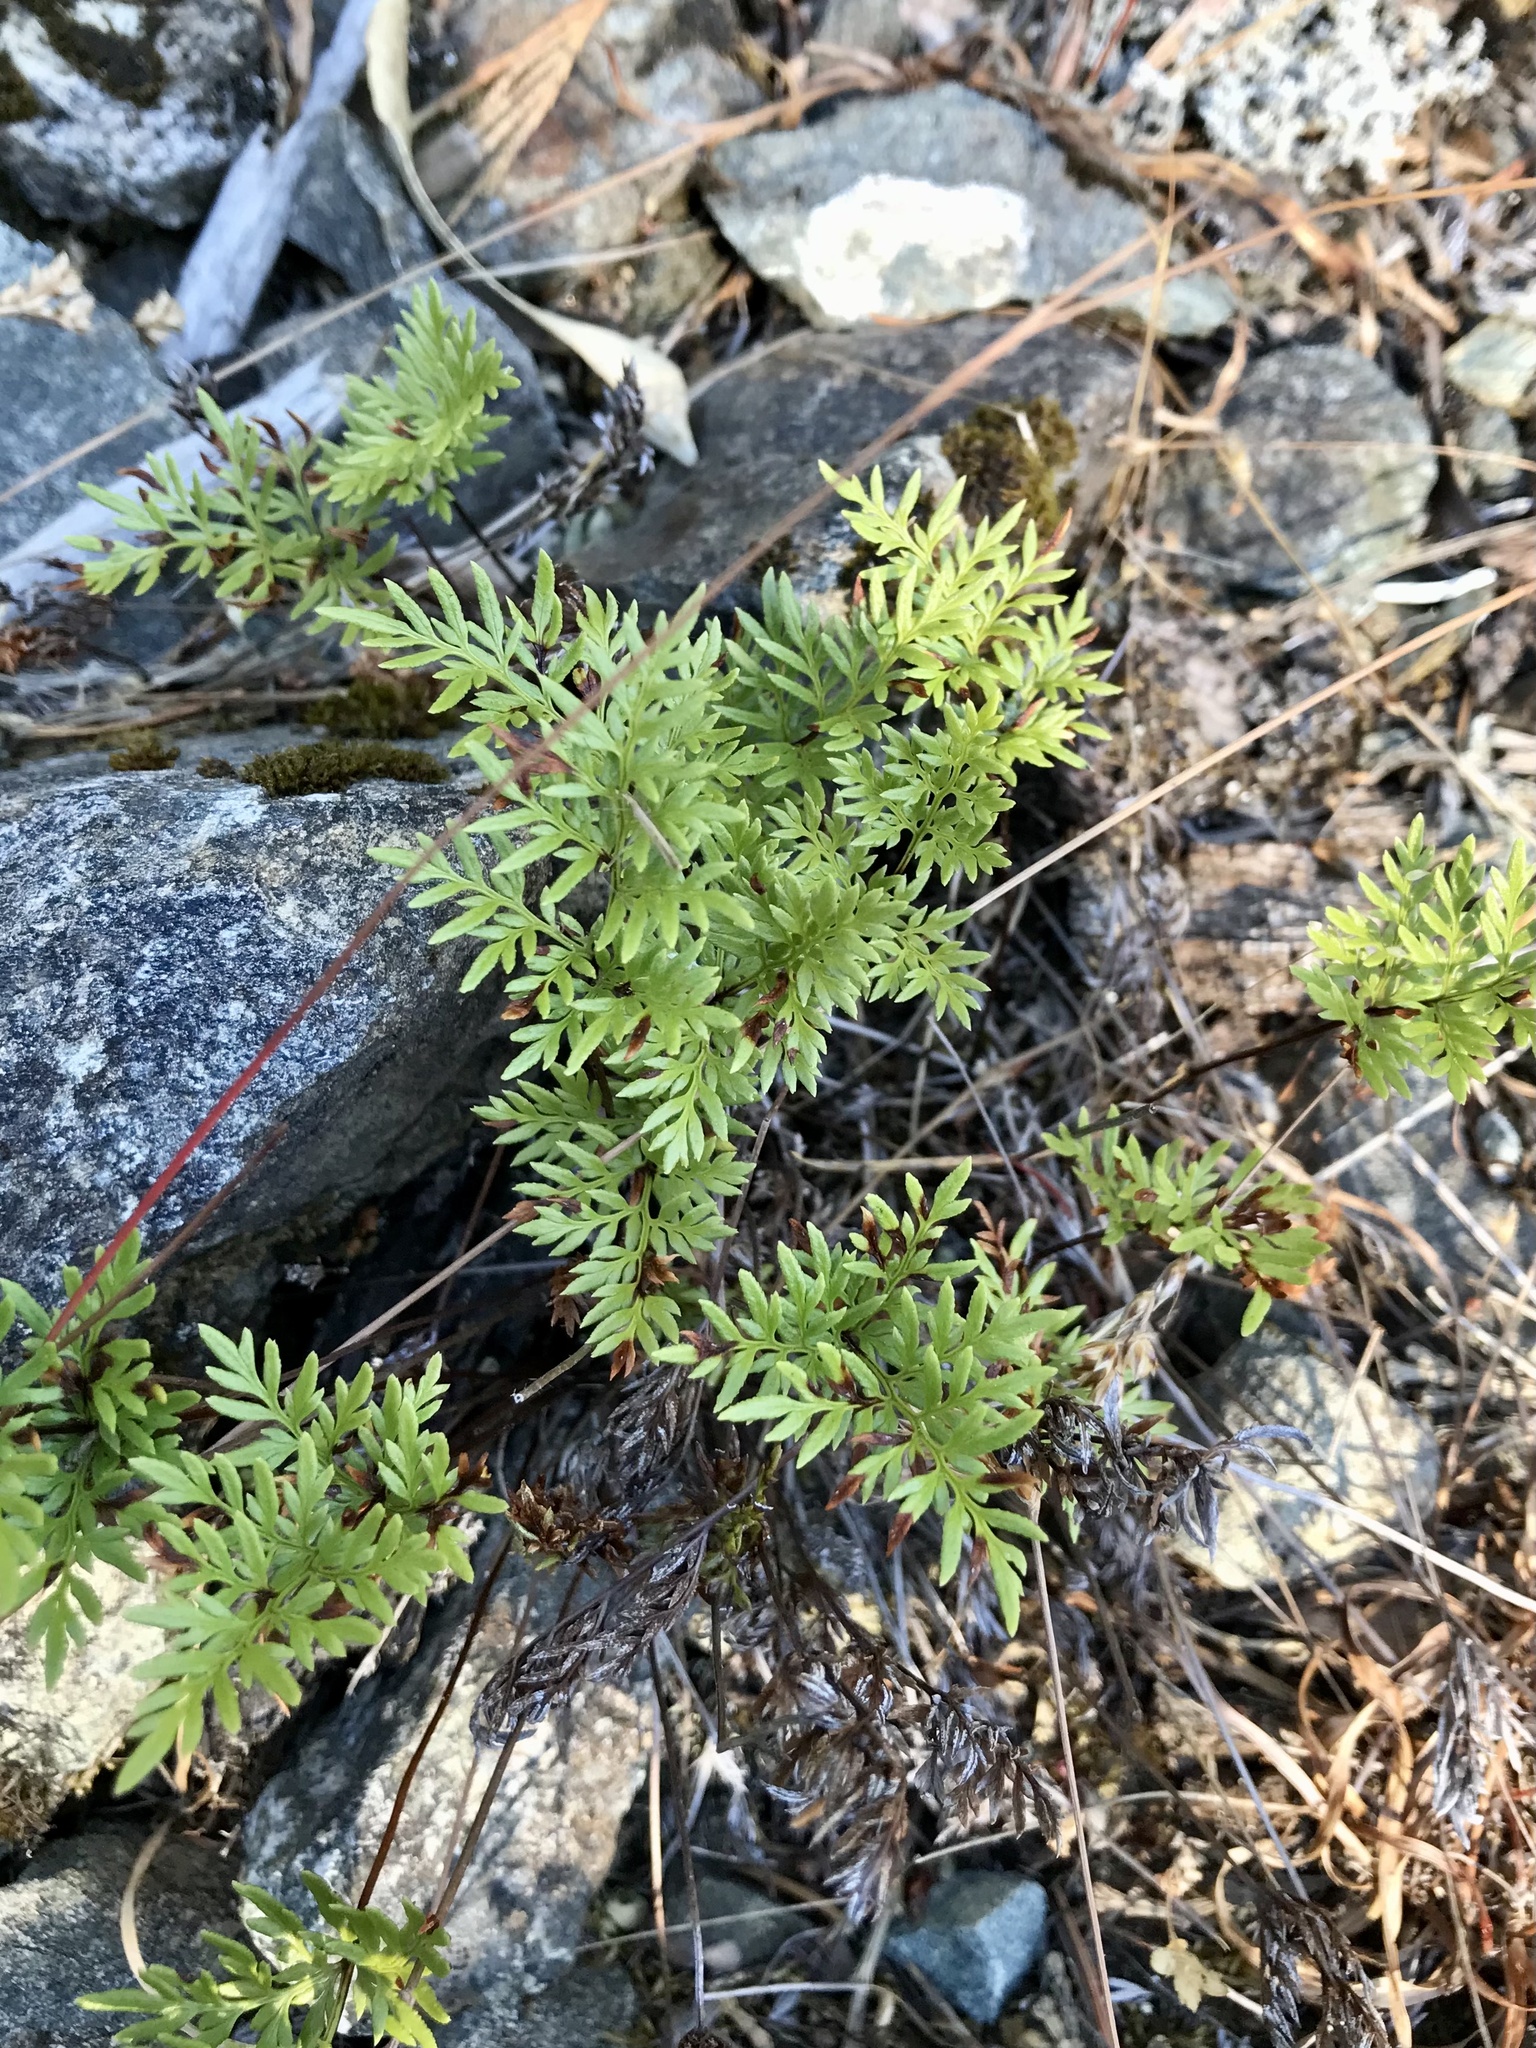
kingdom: Plantae
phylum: Tracheophyta
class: Polypodiopsida
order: Polypodiales
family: Pteridaceae
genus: Aspidotis
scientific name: Aspidotis densa
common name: Indian's dream
